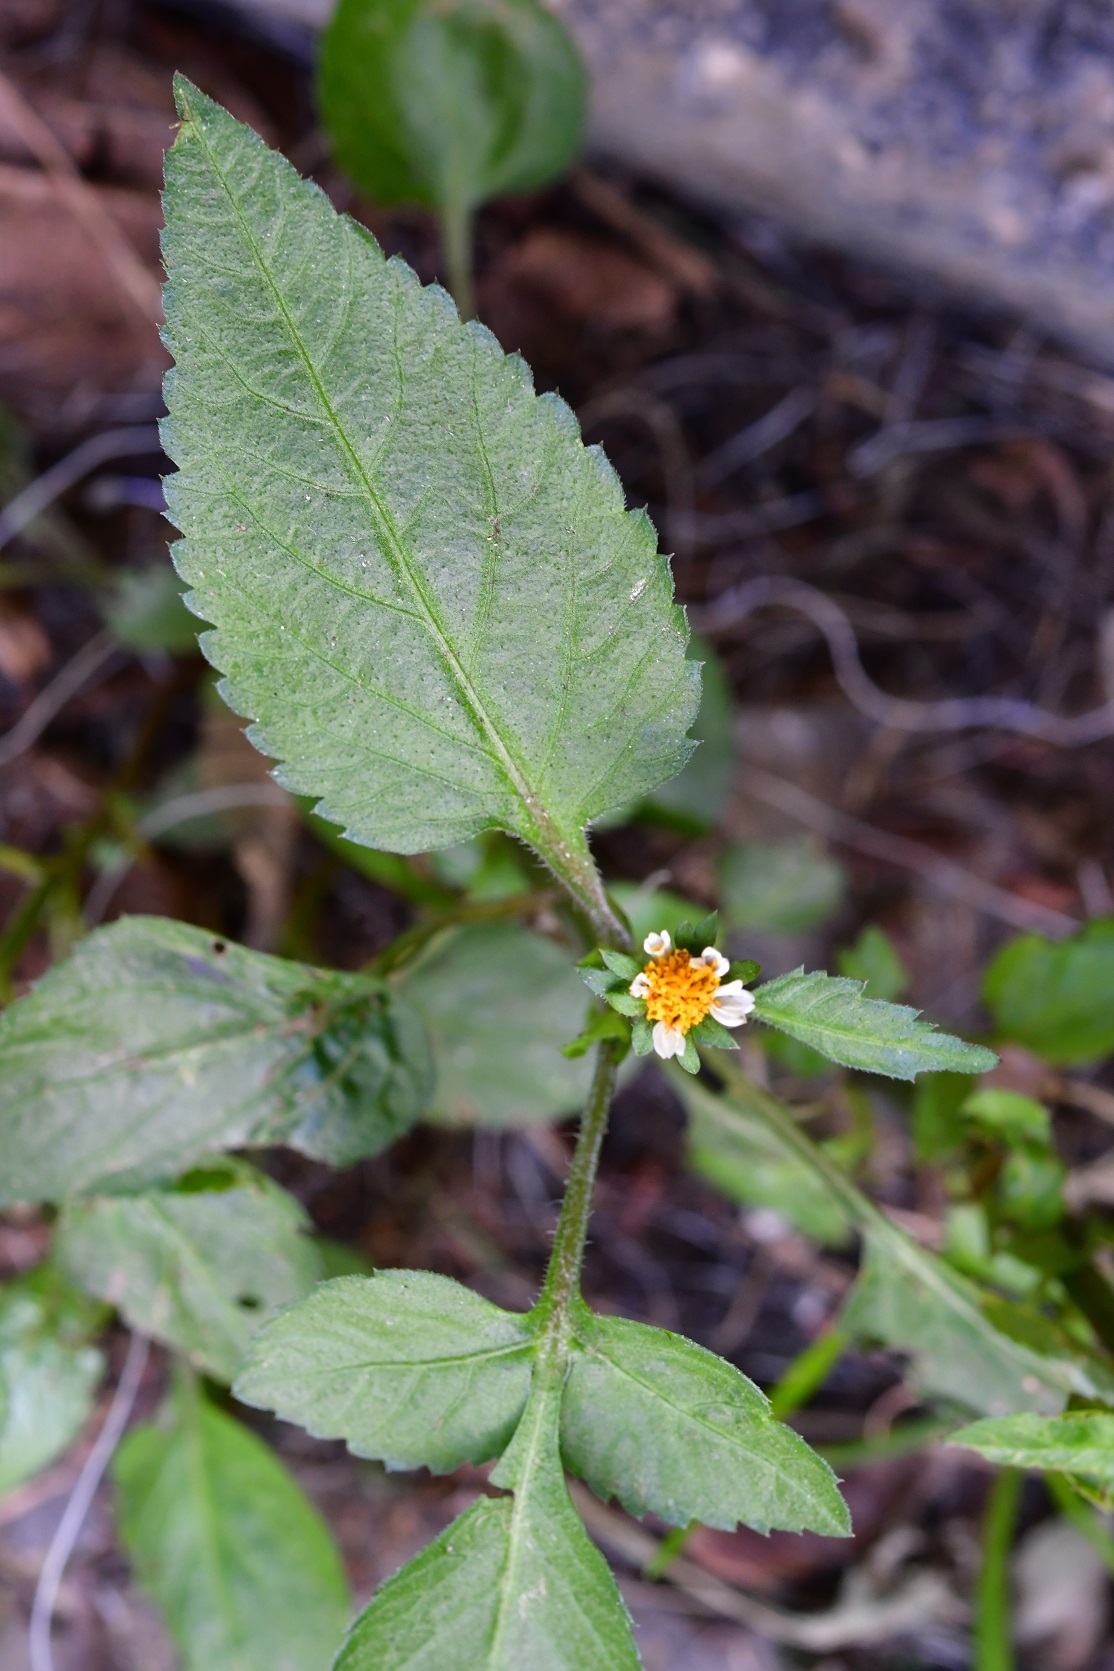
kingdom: Plantae
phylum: Tracheophyta
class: Magnoliopsida
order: Asterales
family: Asteraceae
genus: Bidens
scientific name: Bidens odorata
